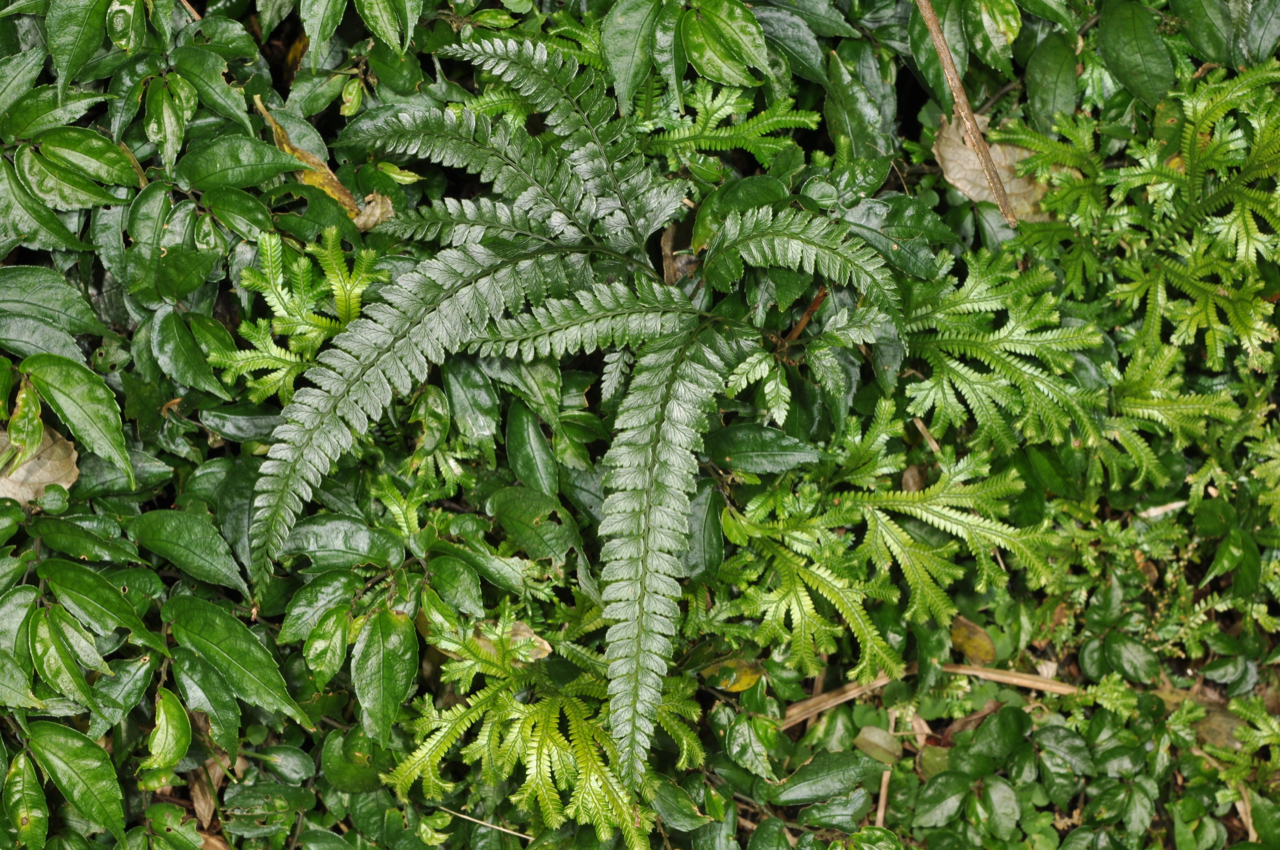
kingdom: Plantae
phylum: Tracheophyta
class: Polypodiopsida
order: Polypodiales
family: Dryopteridaceae
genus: Arachniodes
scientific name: Arachniodes rhomboidea
